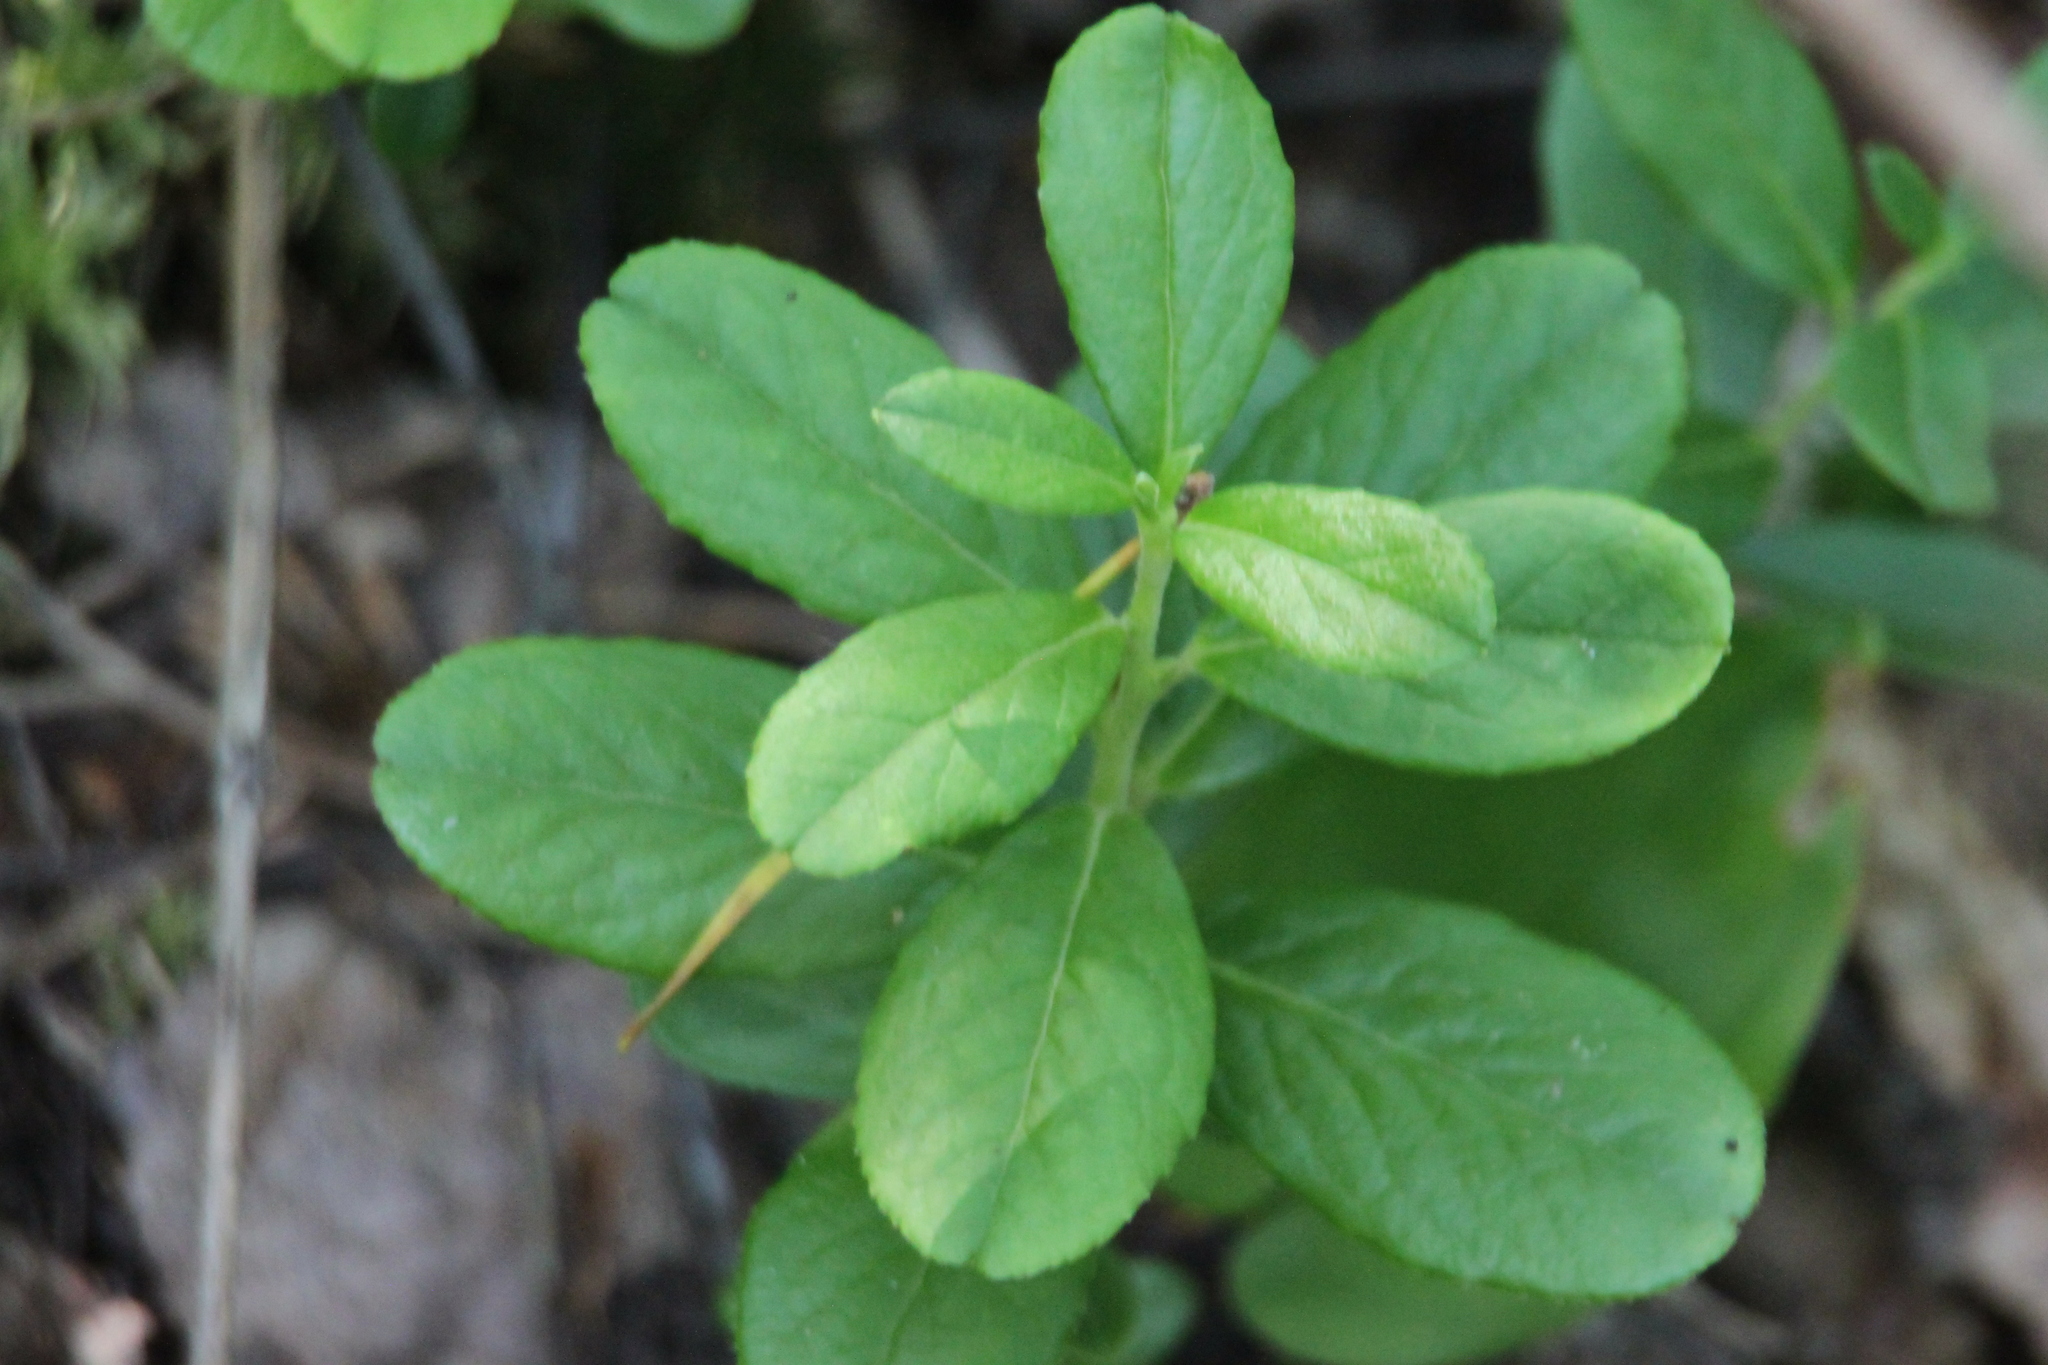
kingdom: Plantae
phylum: Tracheophyta
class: Magnoliopsida
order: Ericales
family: Ericaceae
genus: Vaccinium
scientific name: Vaccinium vitis-idaea
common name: Cowberry
